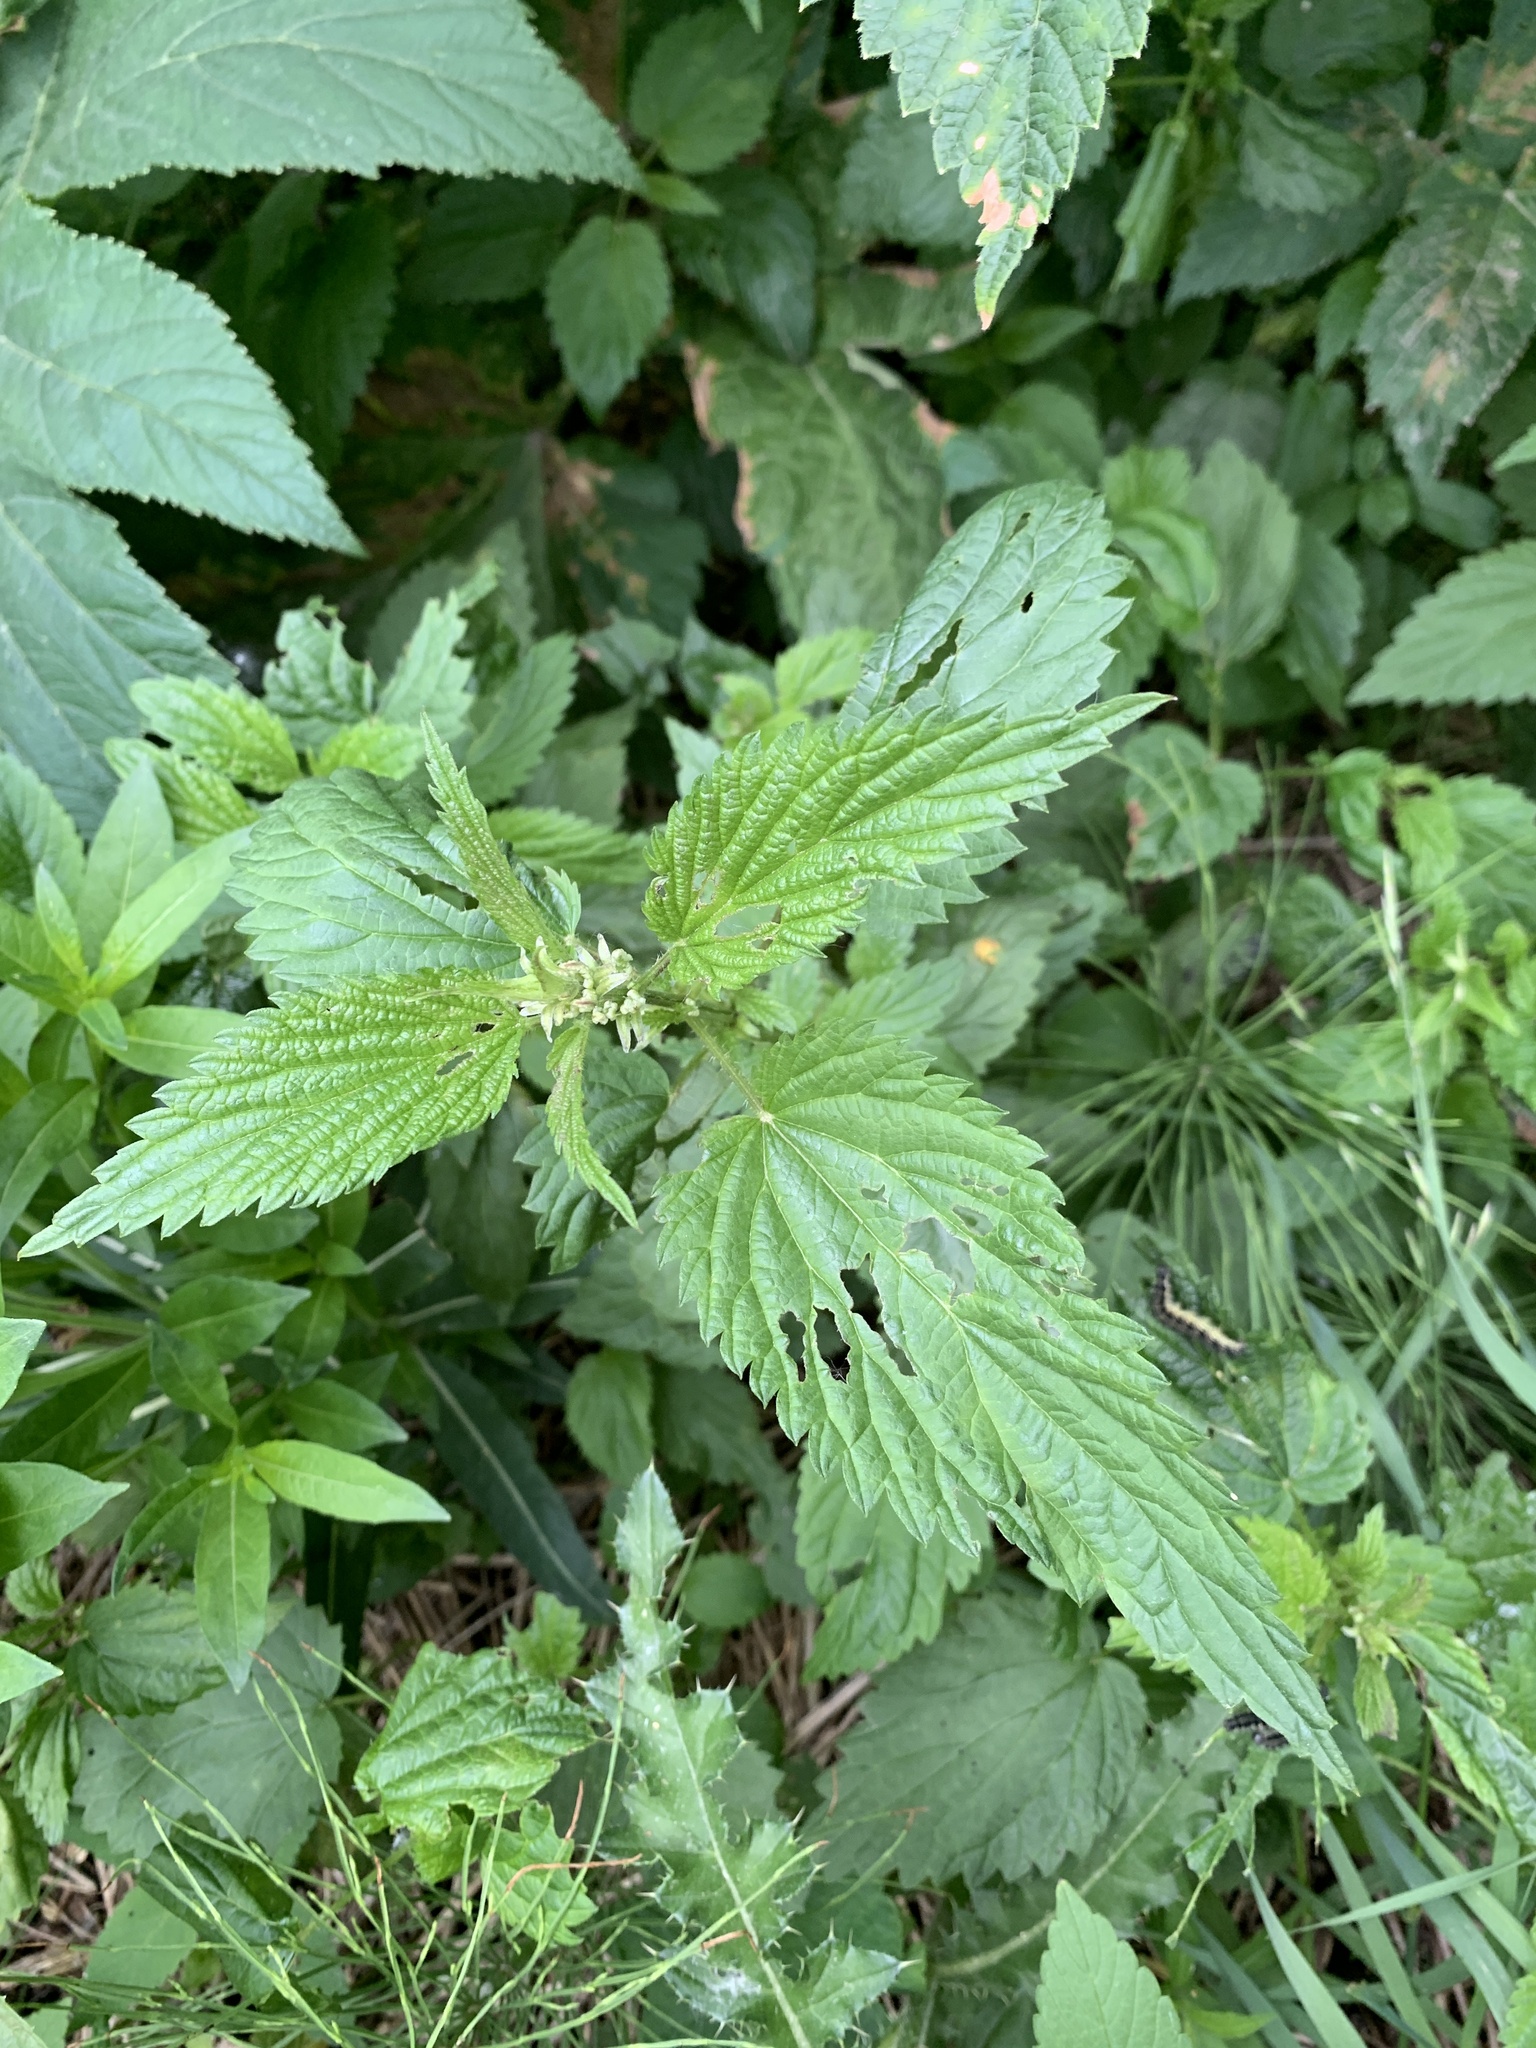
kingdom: Plantae
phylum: Tracheophyta
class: Magnoliopsida
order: Rosales
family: Urticaceae
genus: Urtica
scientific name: Urtica gracilis
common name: Slender stinging nettle
